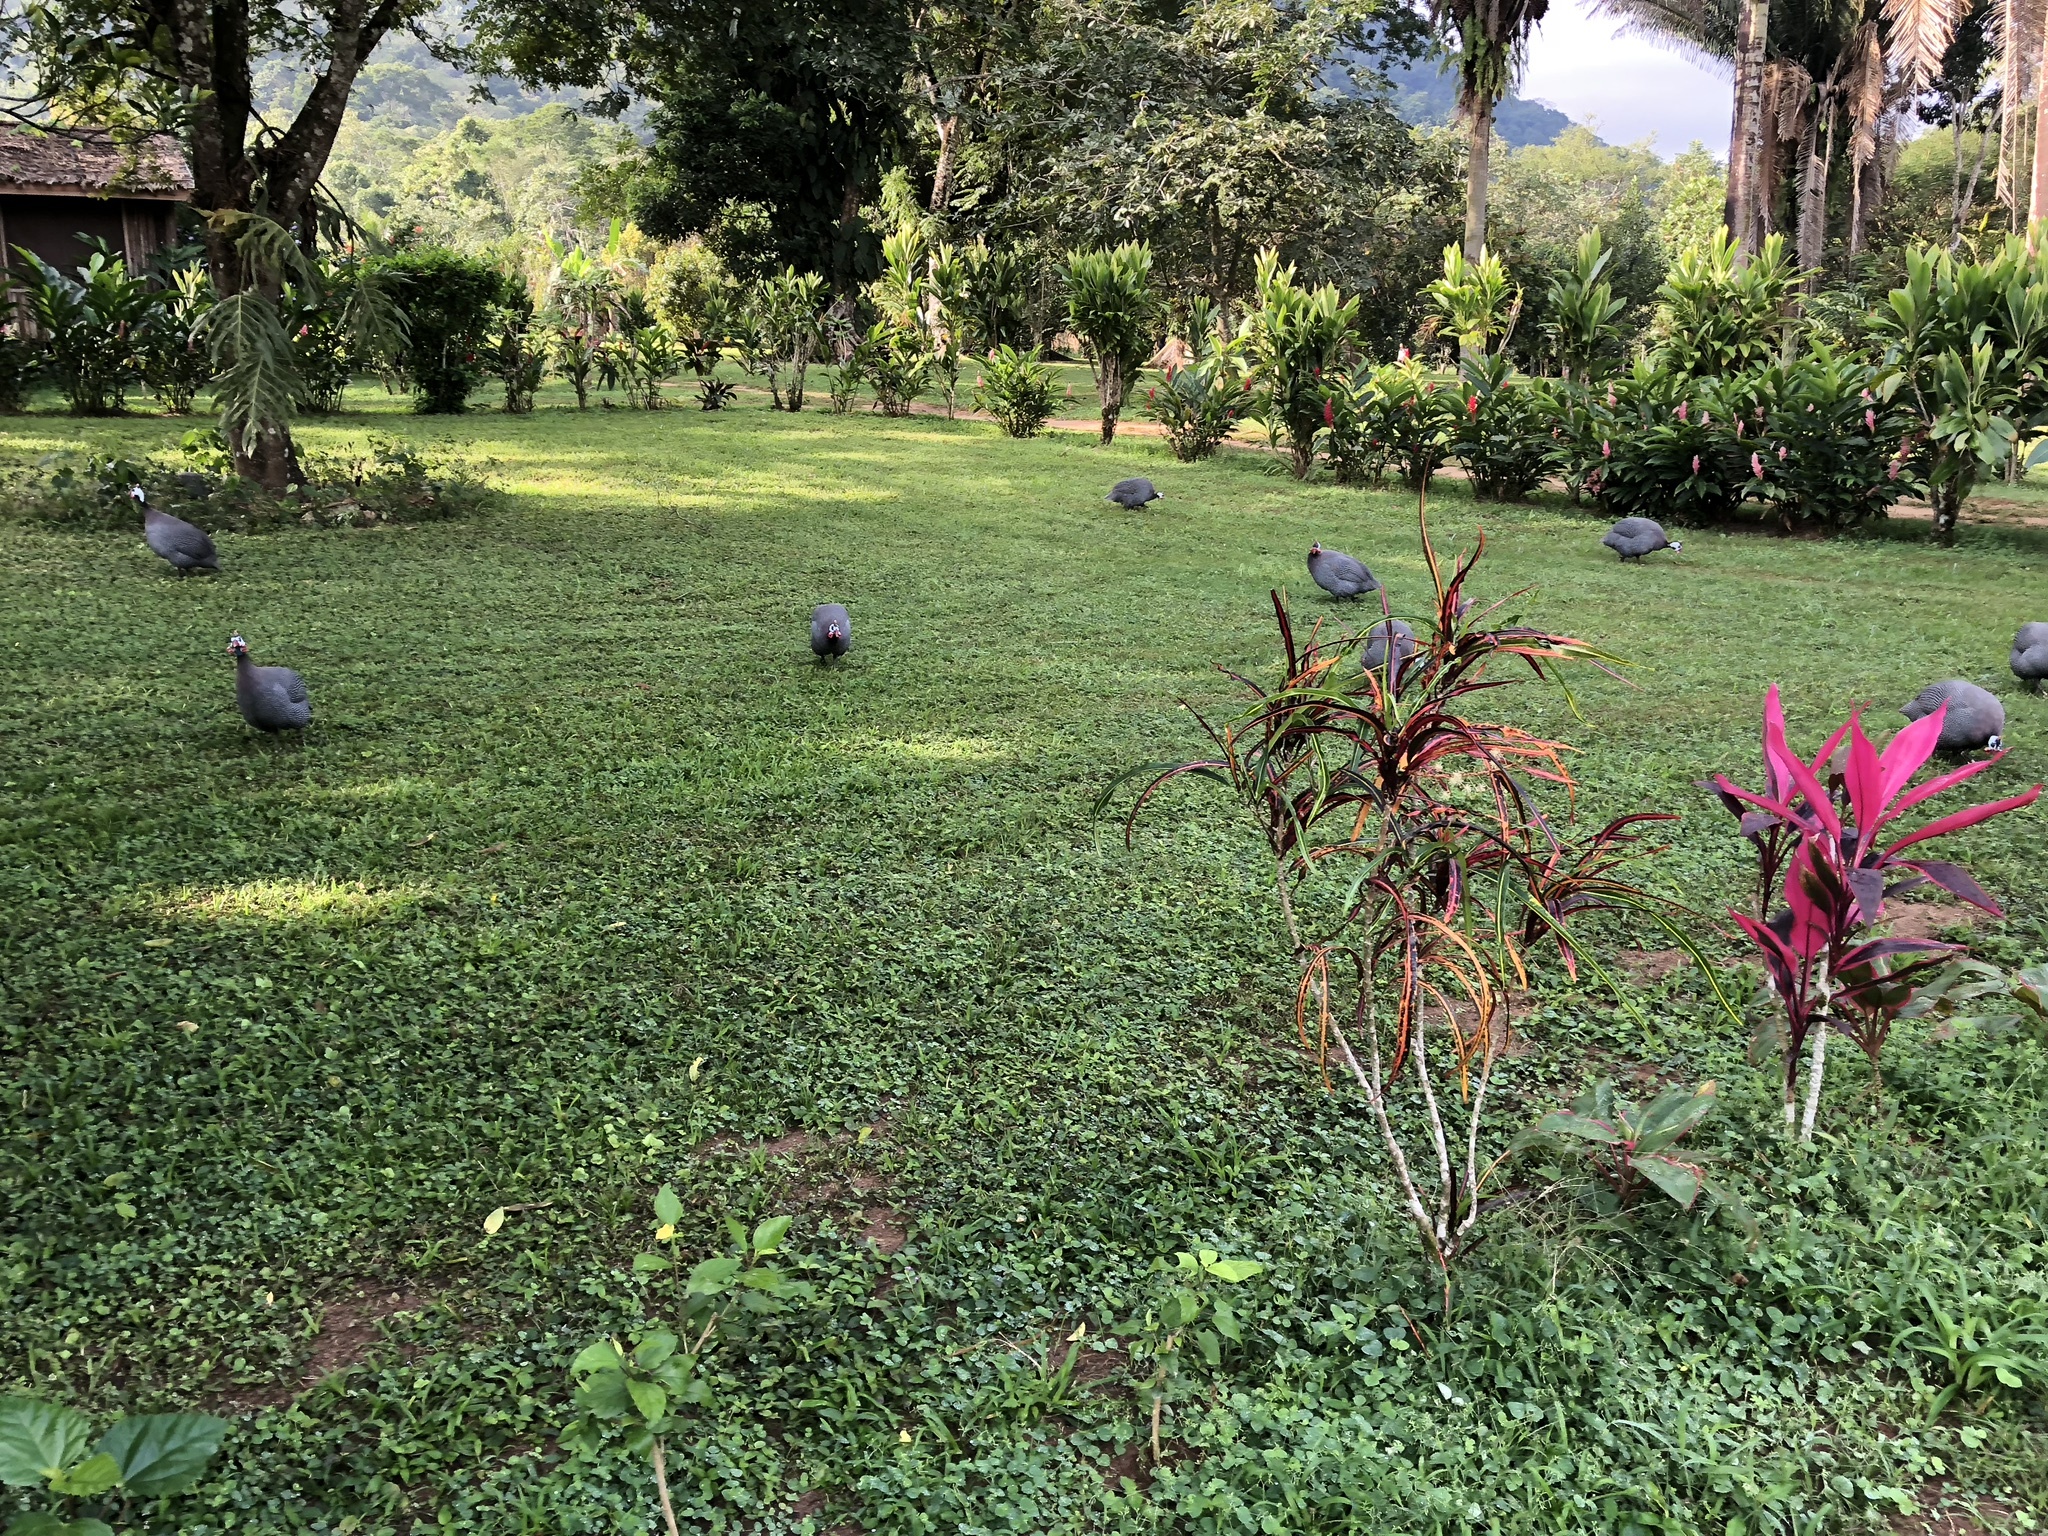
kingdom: Animalia
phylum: Chordata
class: Aves
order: Galliformes
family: Numididae
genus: Numida
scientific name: Numida meleagris
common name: Helmeted guineafowl
